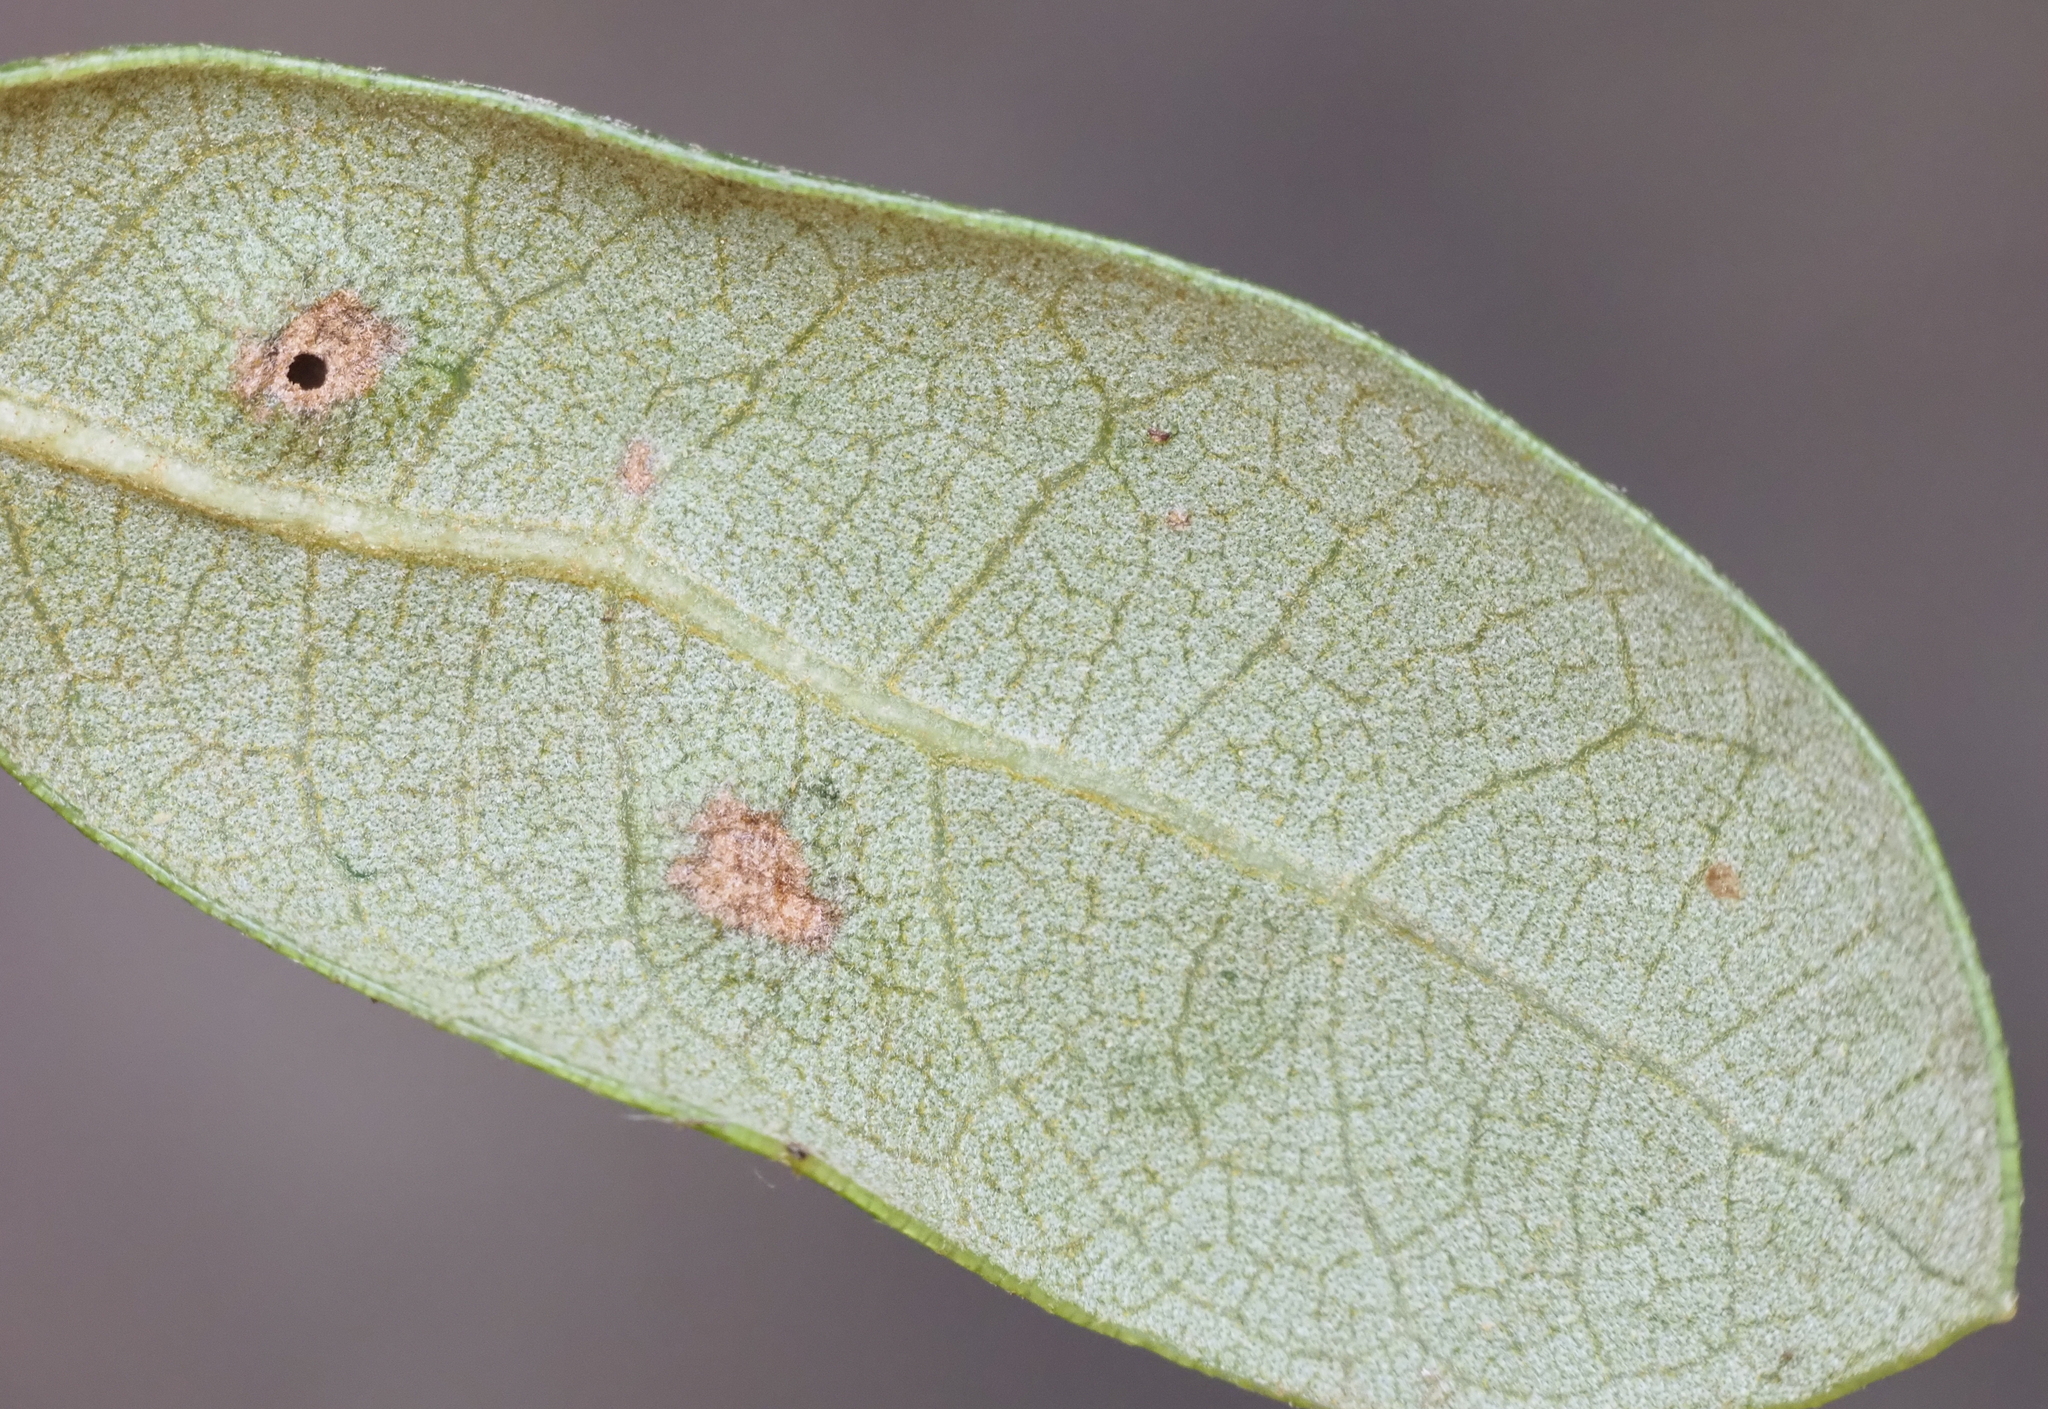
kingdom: Animalia
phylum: Arthropoda
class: Insecta
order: Hymenoptera
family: Cynipidae
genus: Neuroterus
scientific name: Neuroterus bussae
